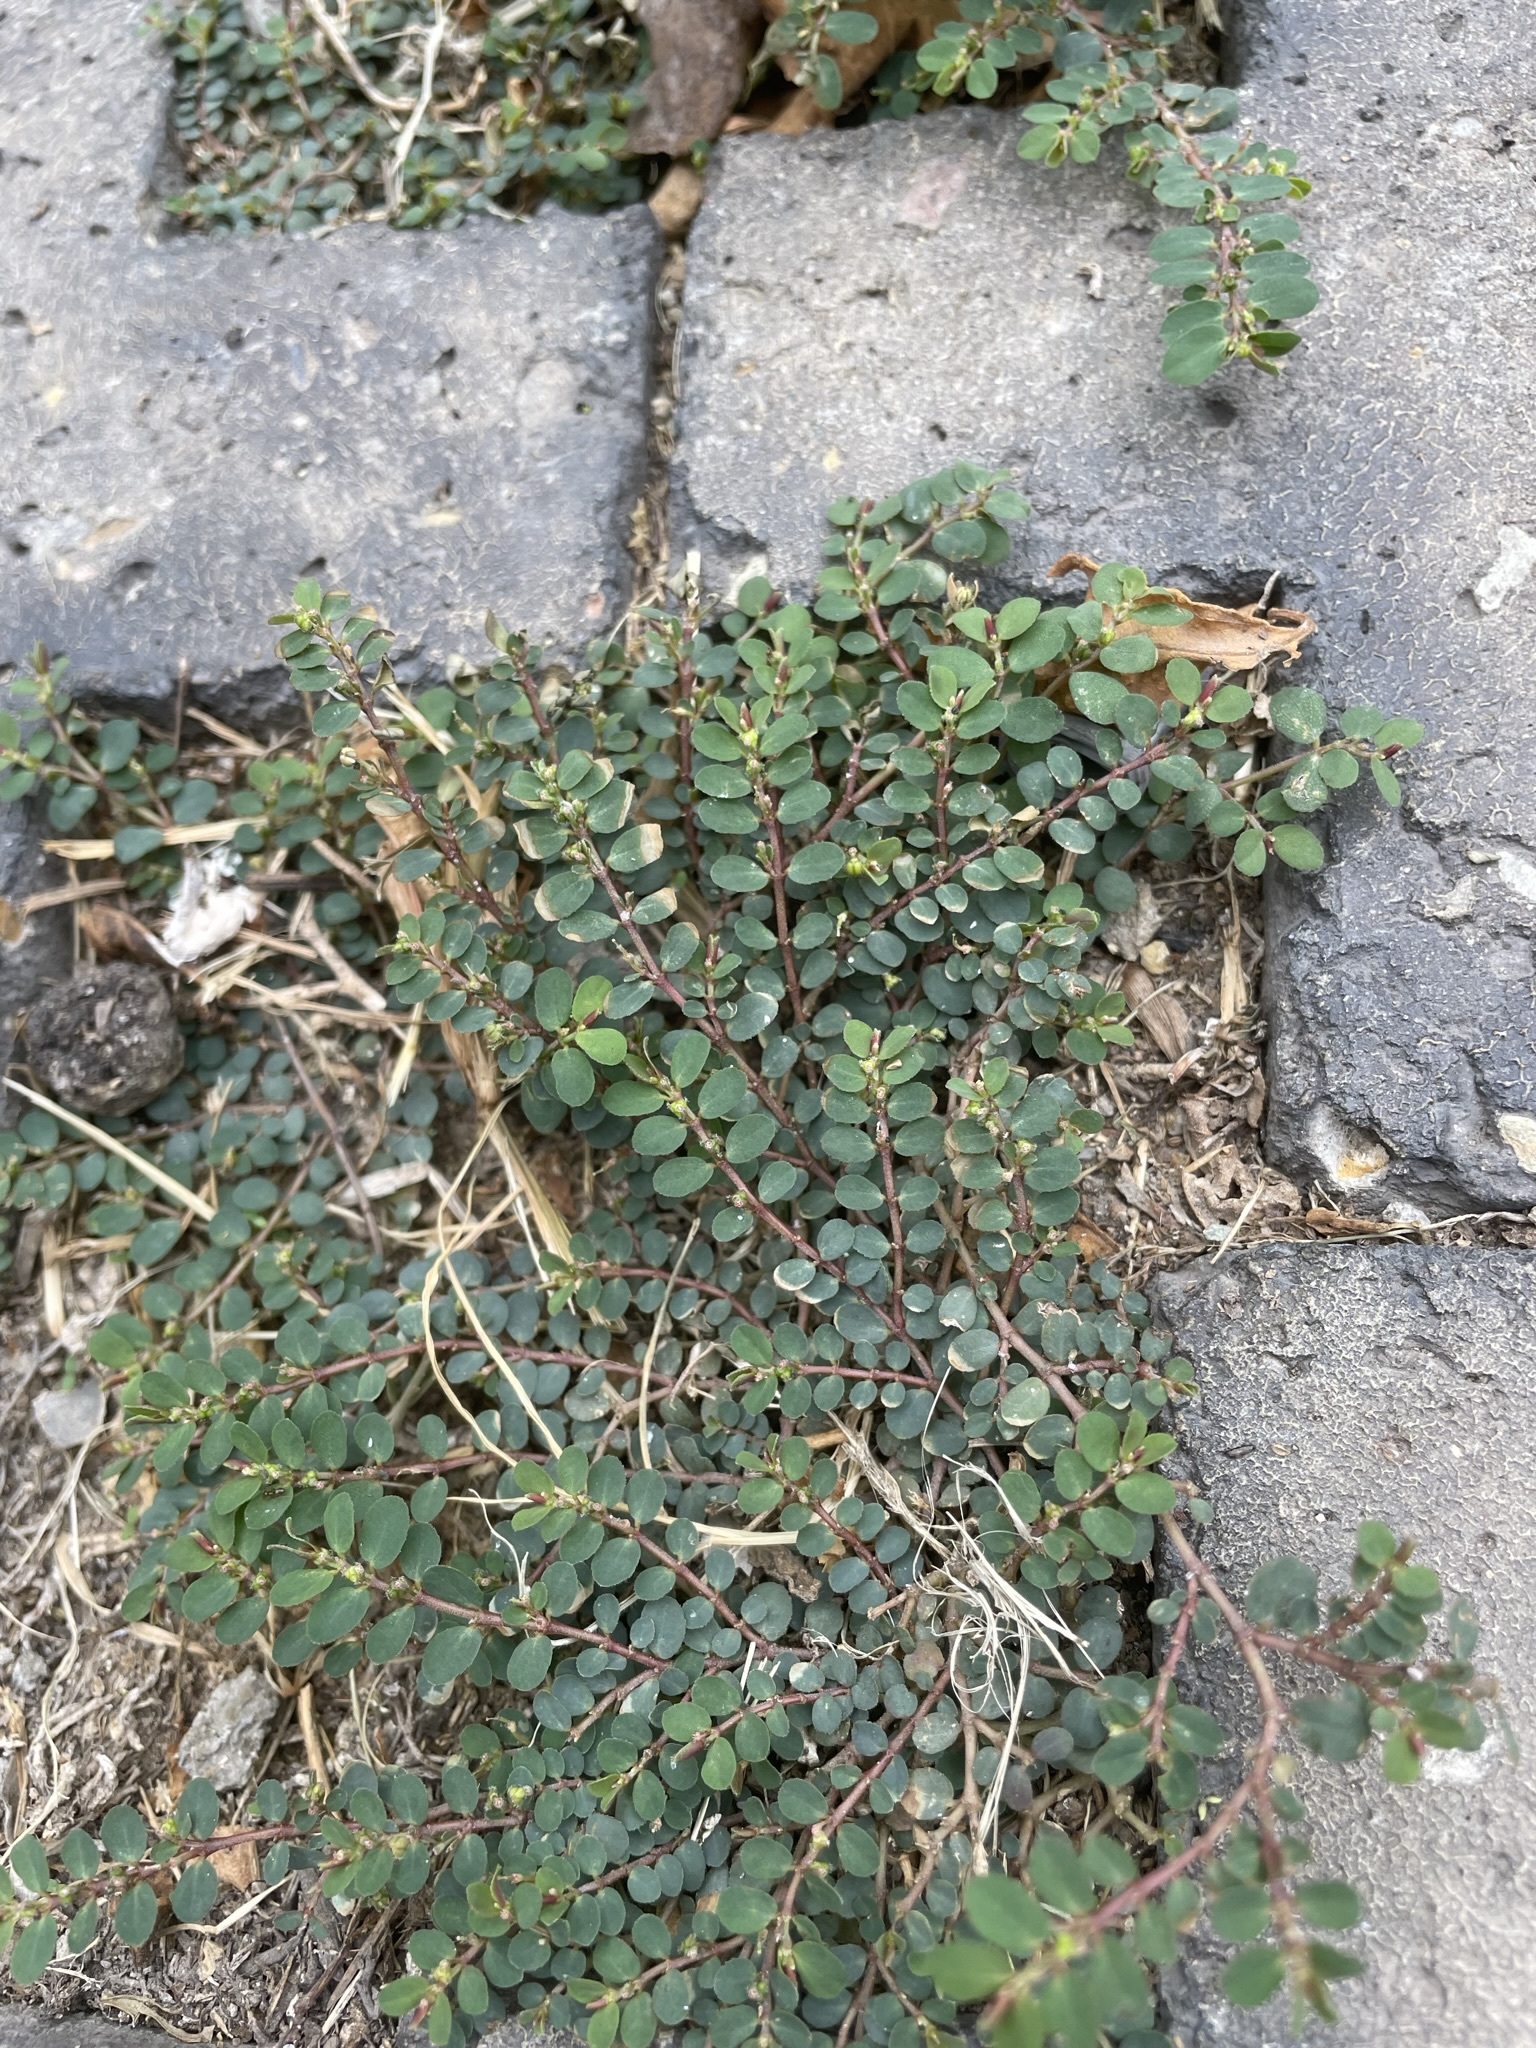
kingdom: Plantae
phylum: Tracheophyta
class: Magnoliopsida
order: Malpighiales
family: Euphorbiaceae
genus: Euphorbia
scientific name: Euphorbia prostrata
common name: Prostrate sandmat
